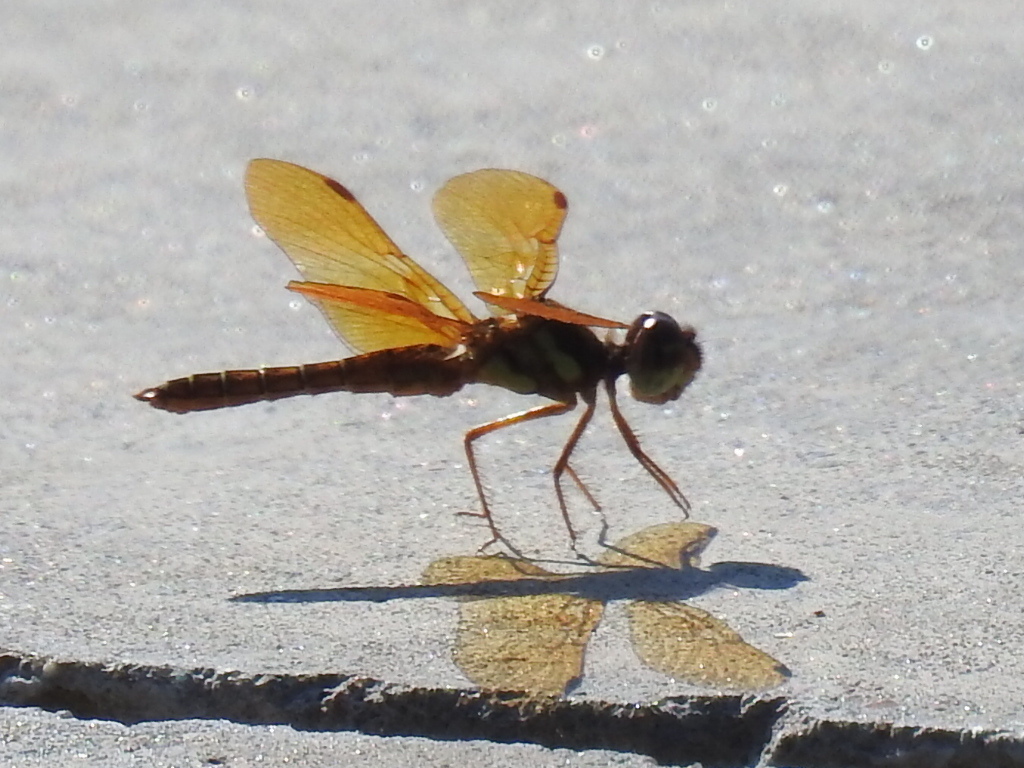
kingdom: Animalia
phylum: Arthropoda
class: Insecta
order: Odonata
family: Libellulidae
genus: Perithemis
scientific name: Perithemis tenera
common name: Eastern amberwing
